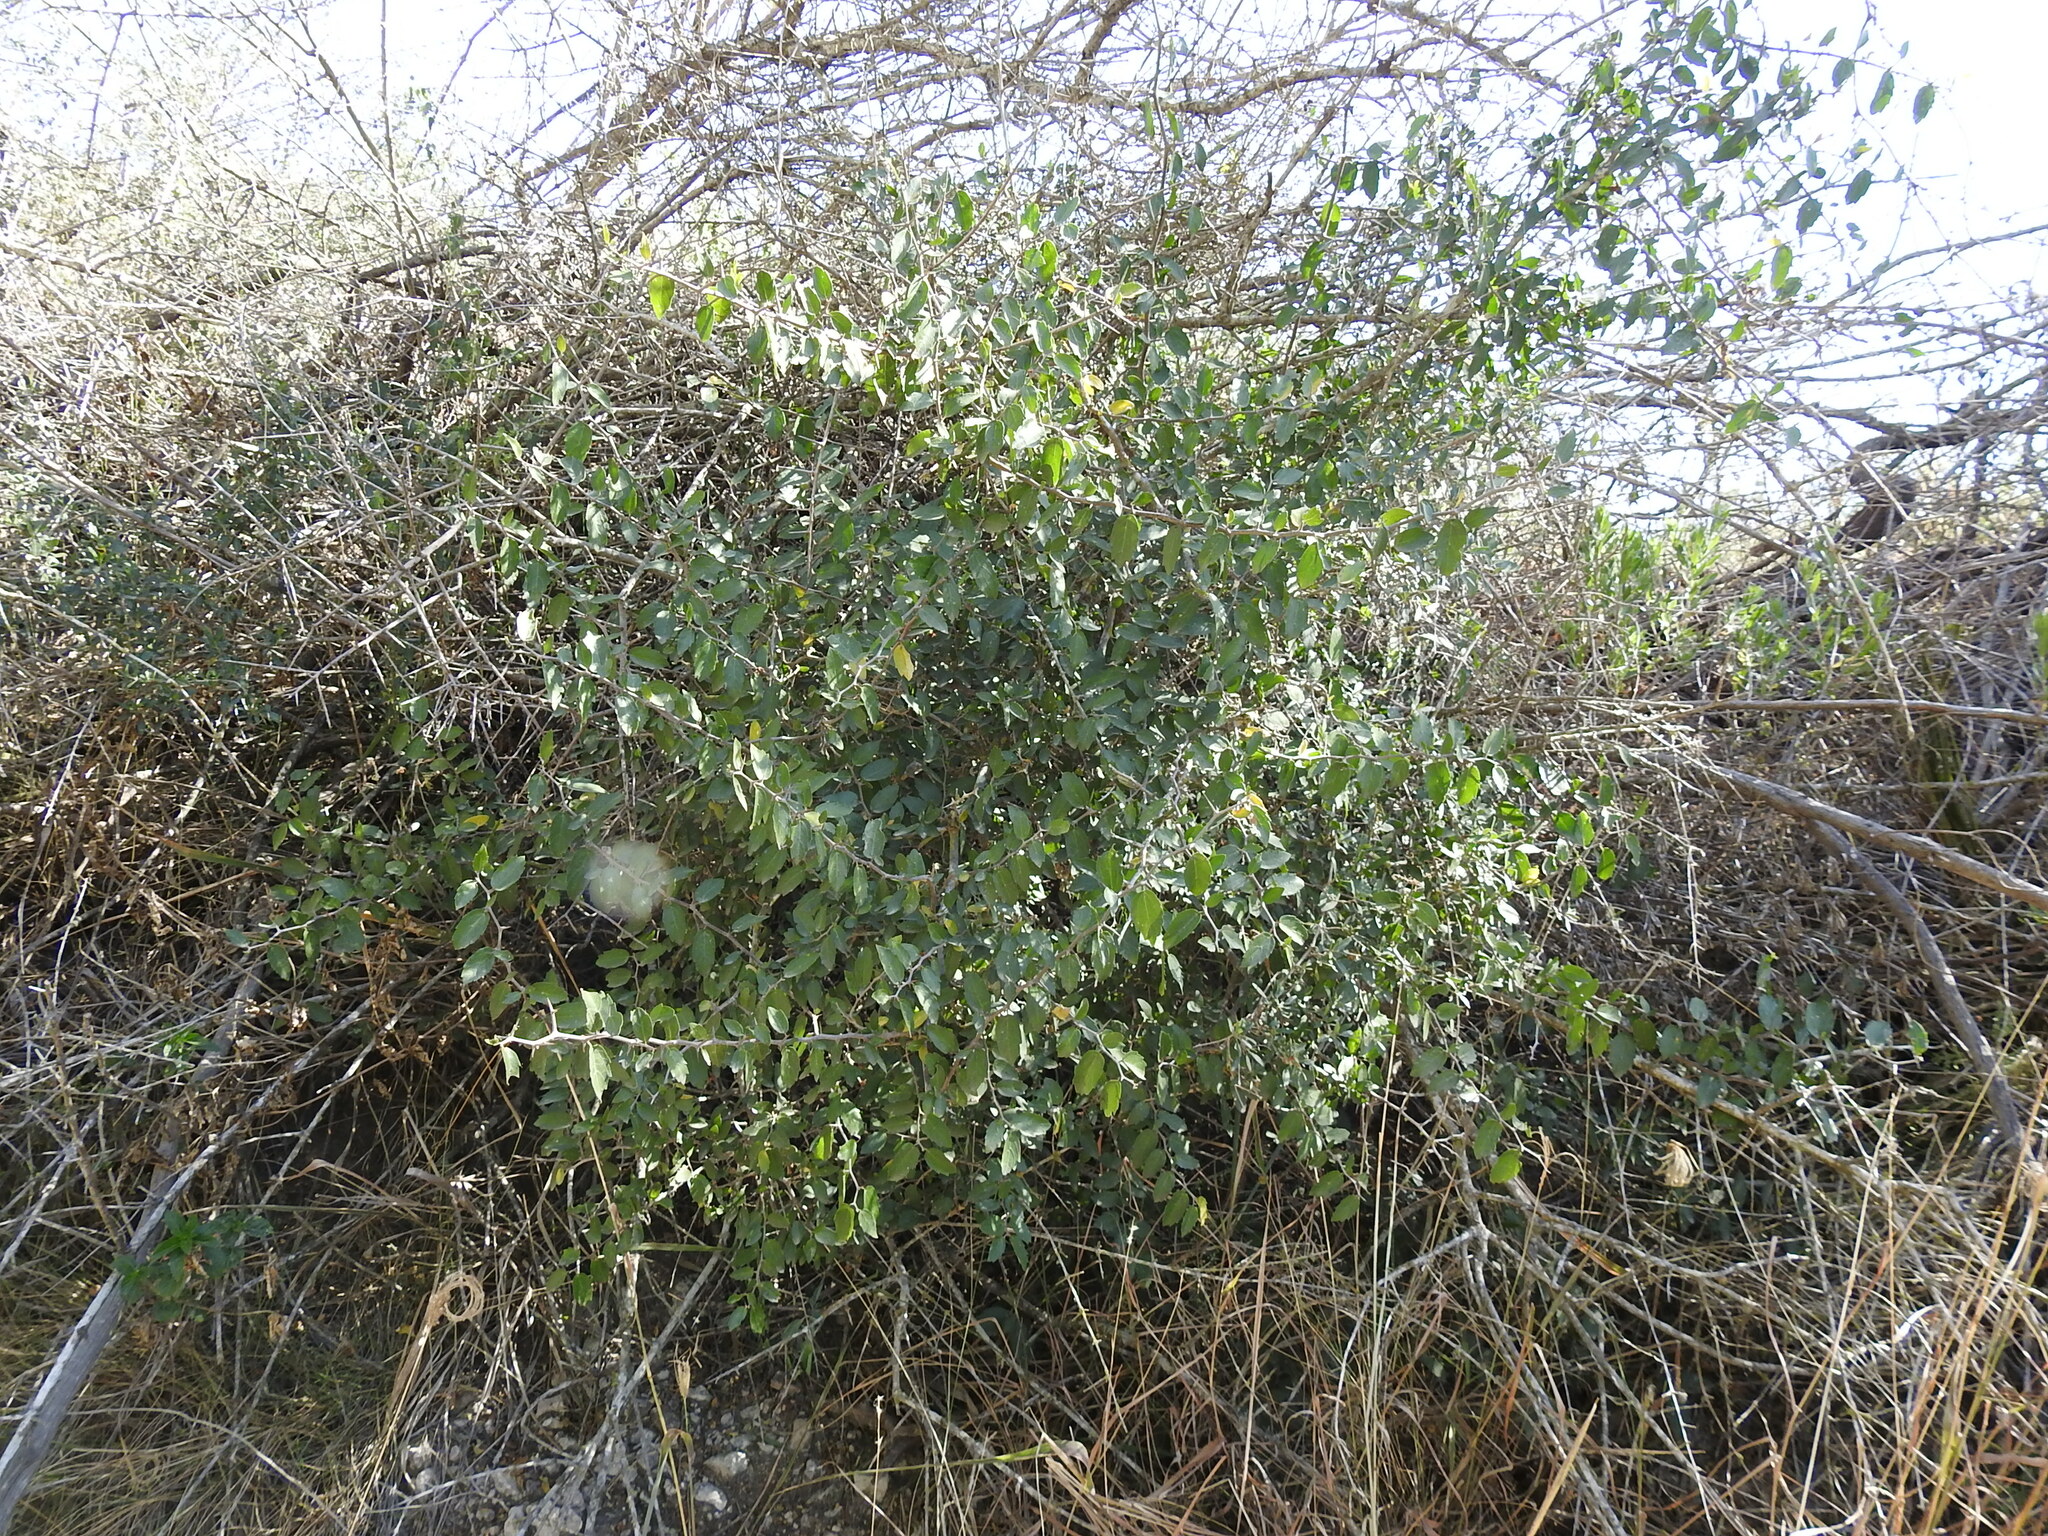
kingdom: Plantae
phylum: Tracheophyta
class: Magnoliopsida
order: Rosales
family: Cannabaceae
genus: Celtis
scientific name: Celtis tala
